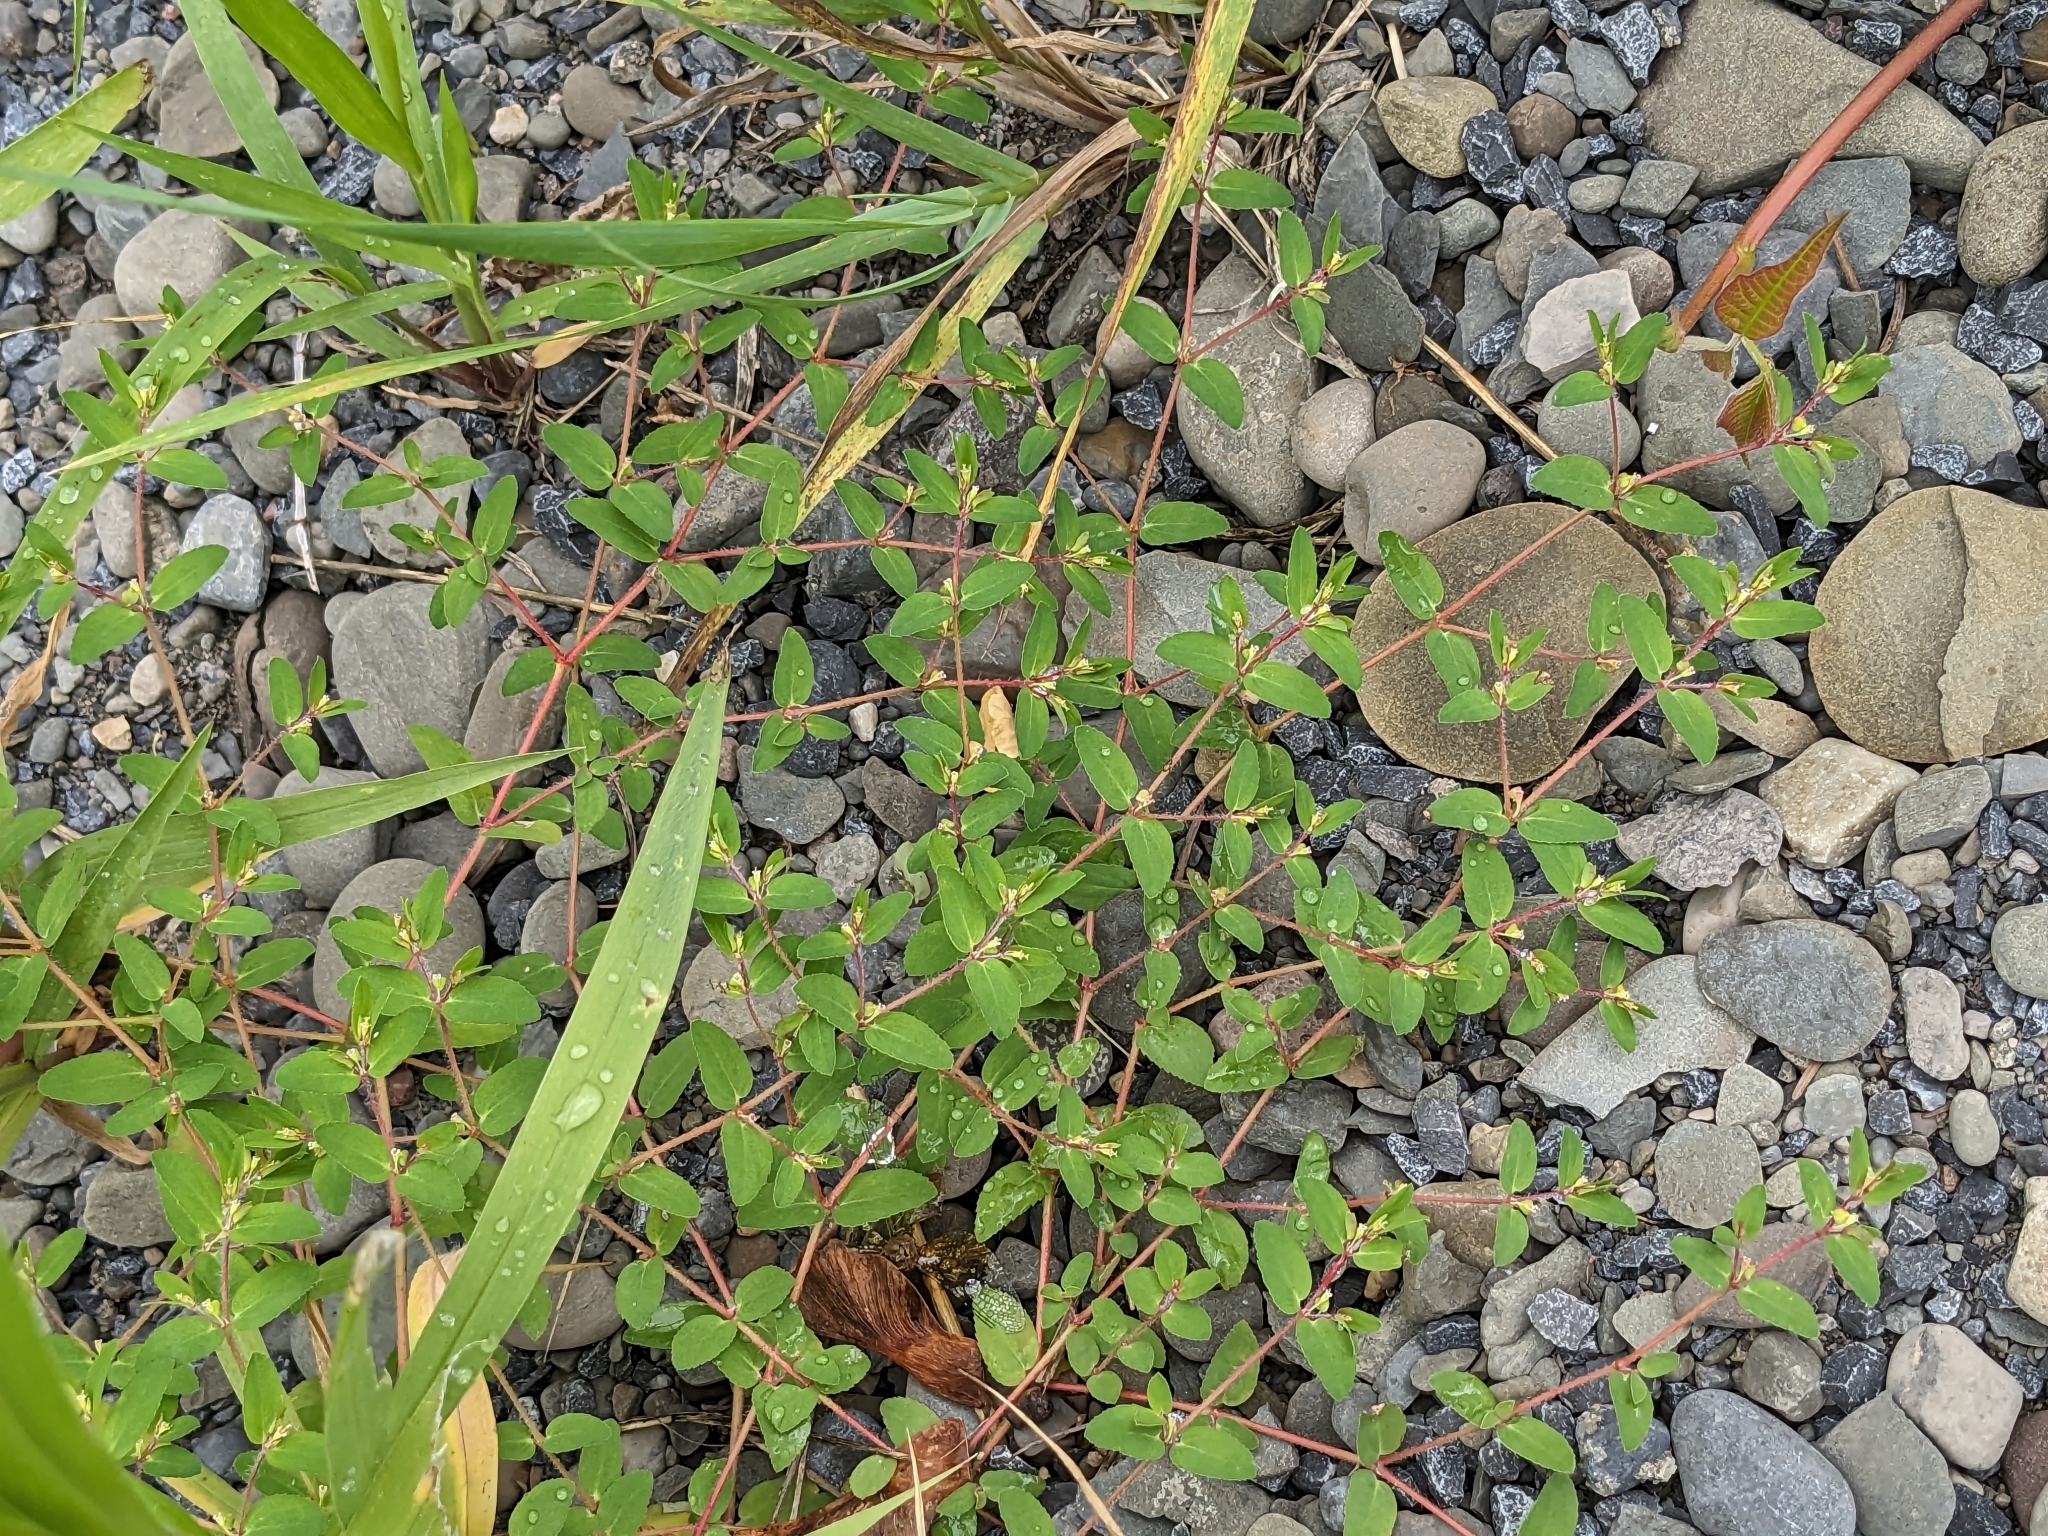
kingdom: Plantae
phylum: Tracheophyta
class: Magnoliopsida
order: Malpighiales
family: Euphorbiaceae
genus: Euphorbia
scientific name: Euphorbia vermiculata
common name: Hairy spurge
